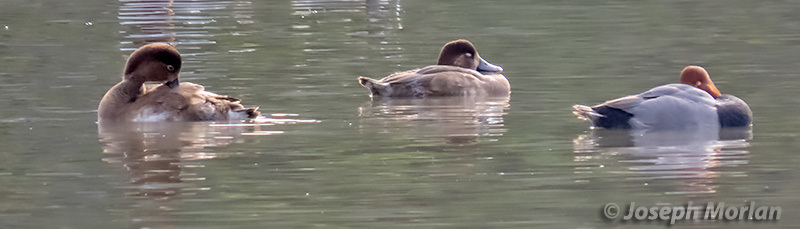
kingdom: Animalia
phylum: Chordata
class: Aves
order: Anseriformes
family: Anatidae
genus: Aythya
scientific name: Aythya americana
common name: Redhead
